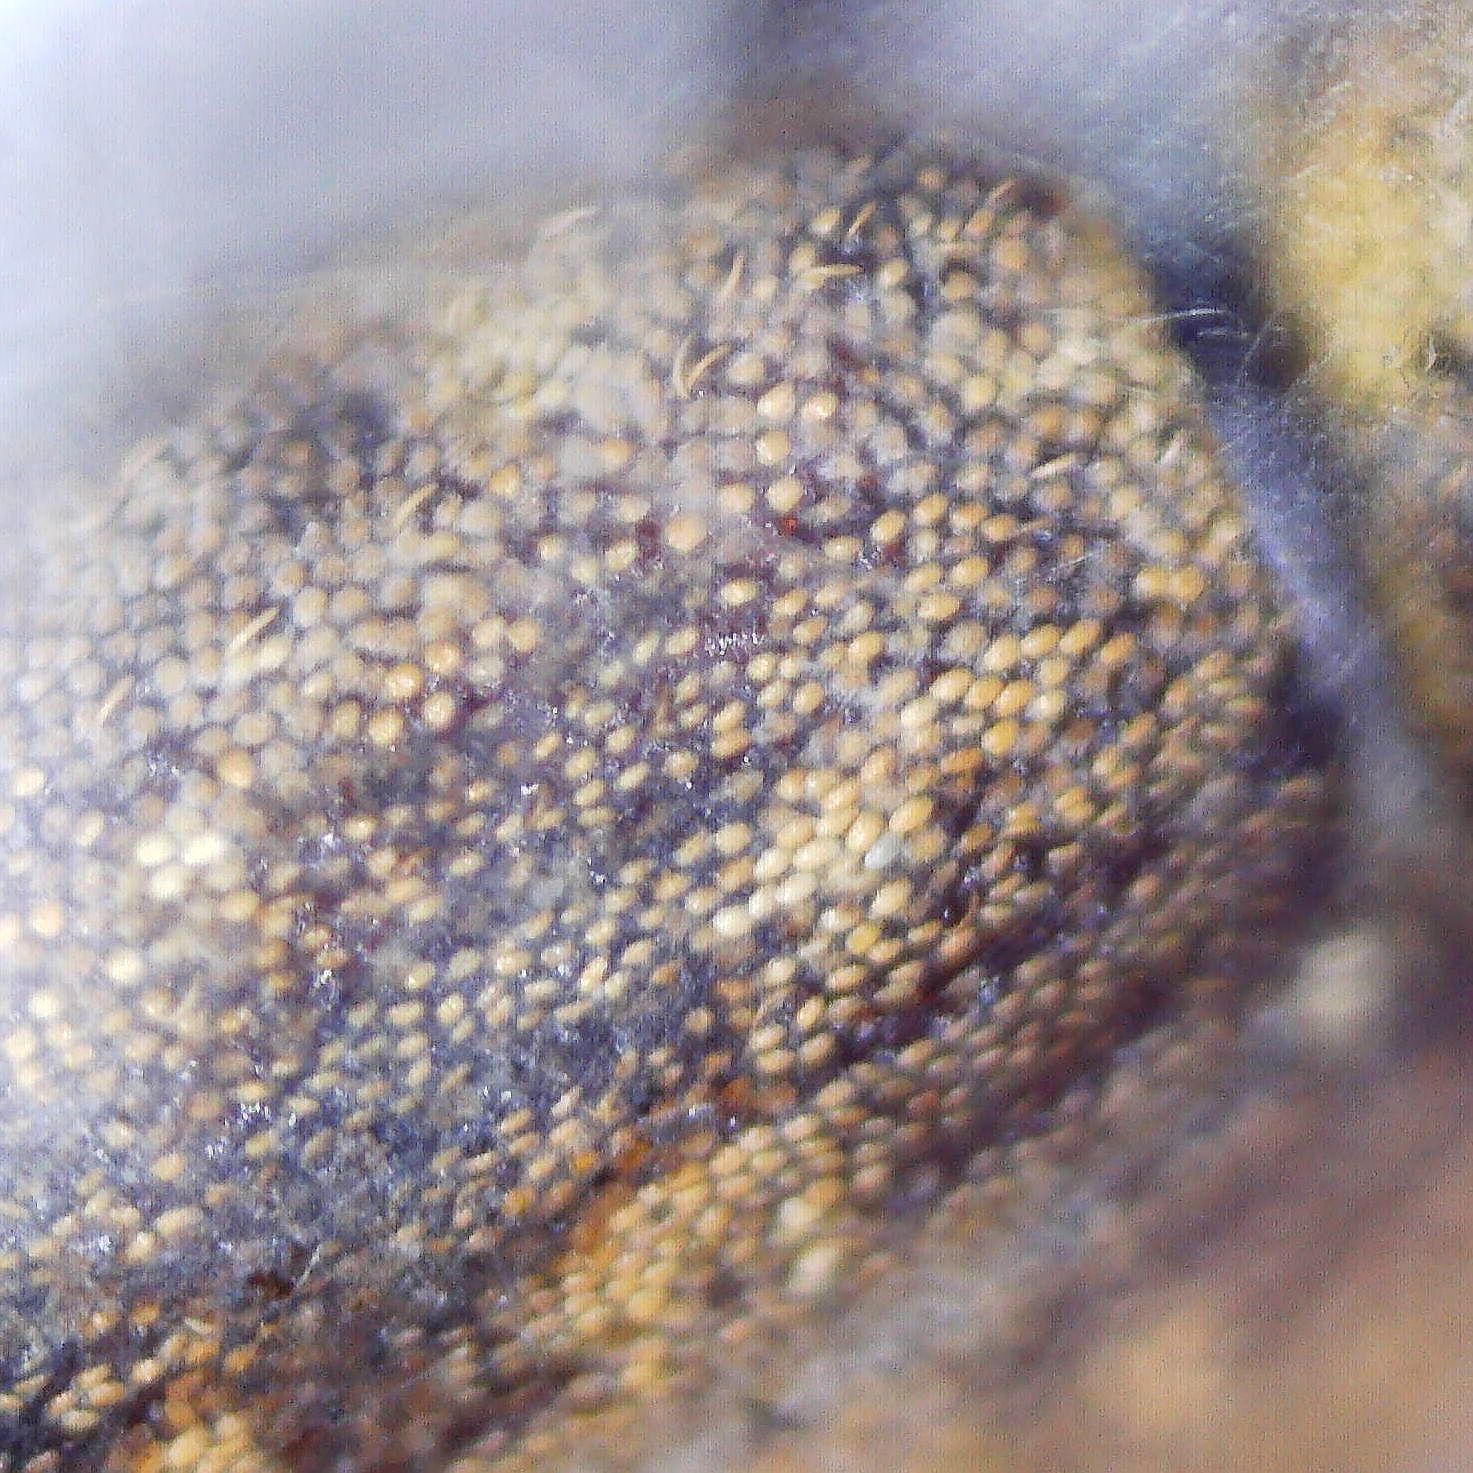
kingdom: Animalia
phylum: Arthropoda
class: Insecta
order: Coleoptera
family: Brachyceridae
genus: Thryogenes
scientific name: Thryogenes festucae
